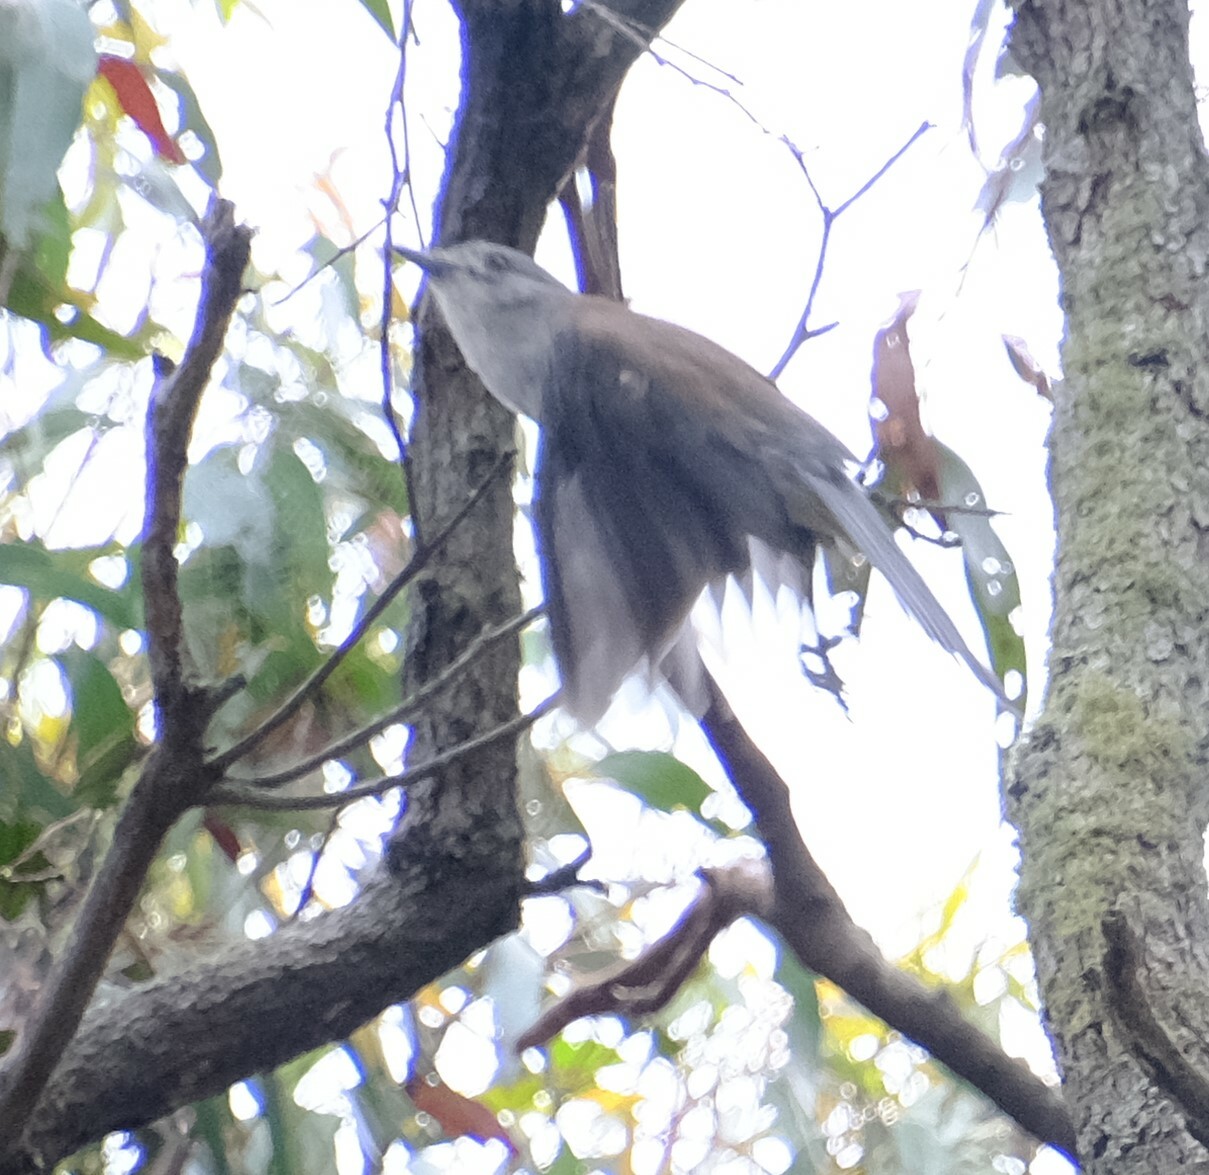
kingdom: Animalia
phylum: Chordata
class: Aves
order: Passeriformes
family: Pachycephalidae
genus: Colluricincla
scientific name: Colluricincla harmonica
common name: Grey shrikethrush
